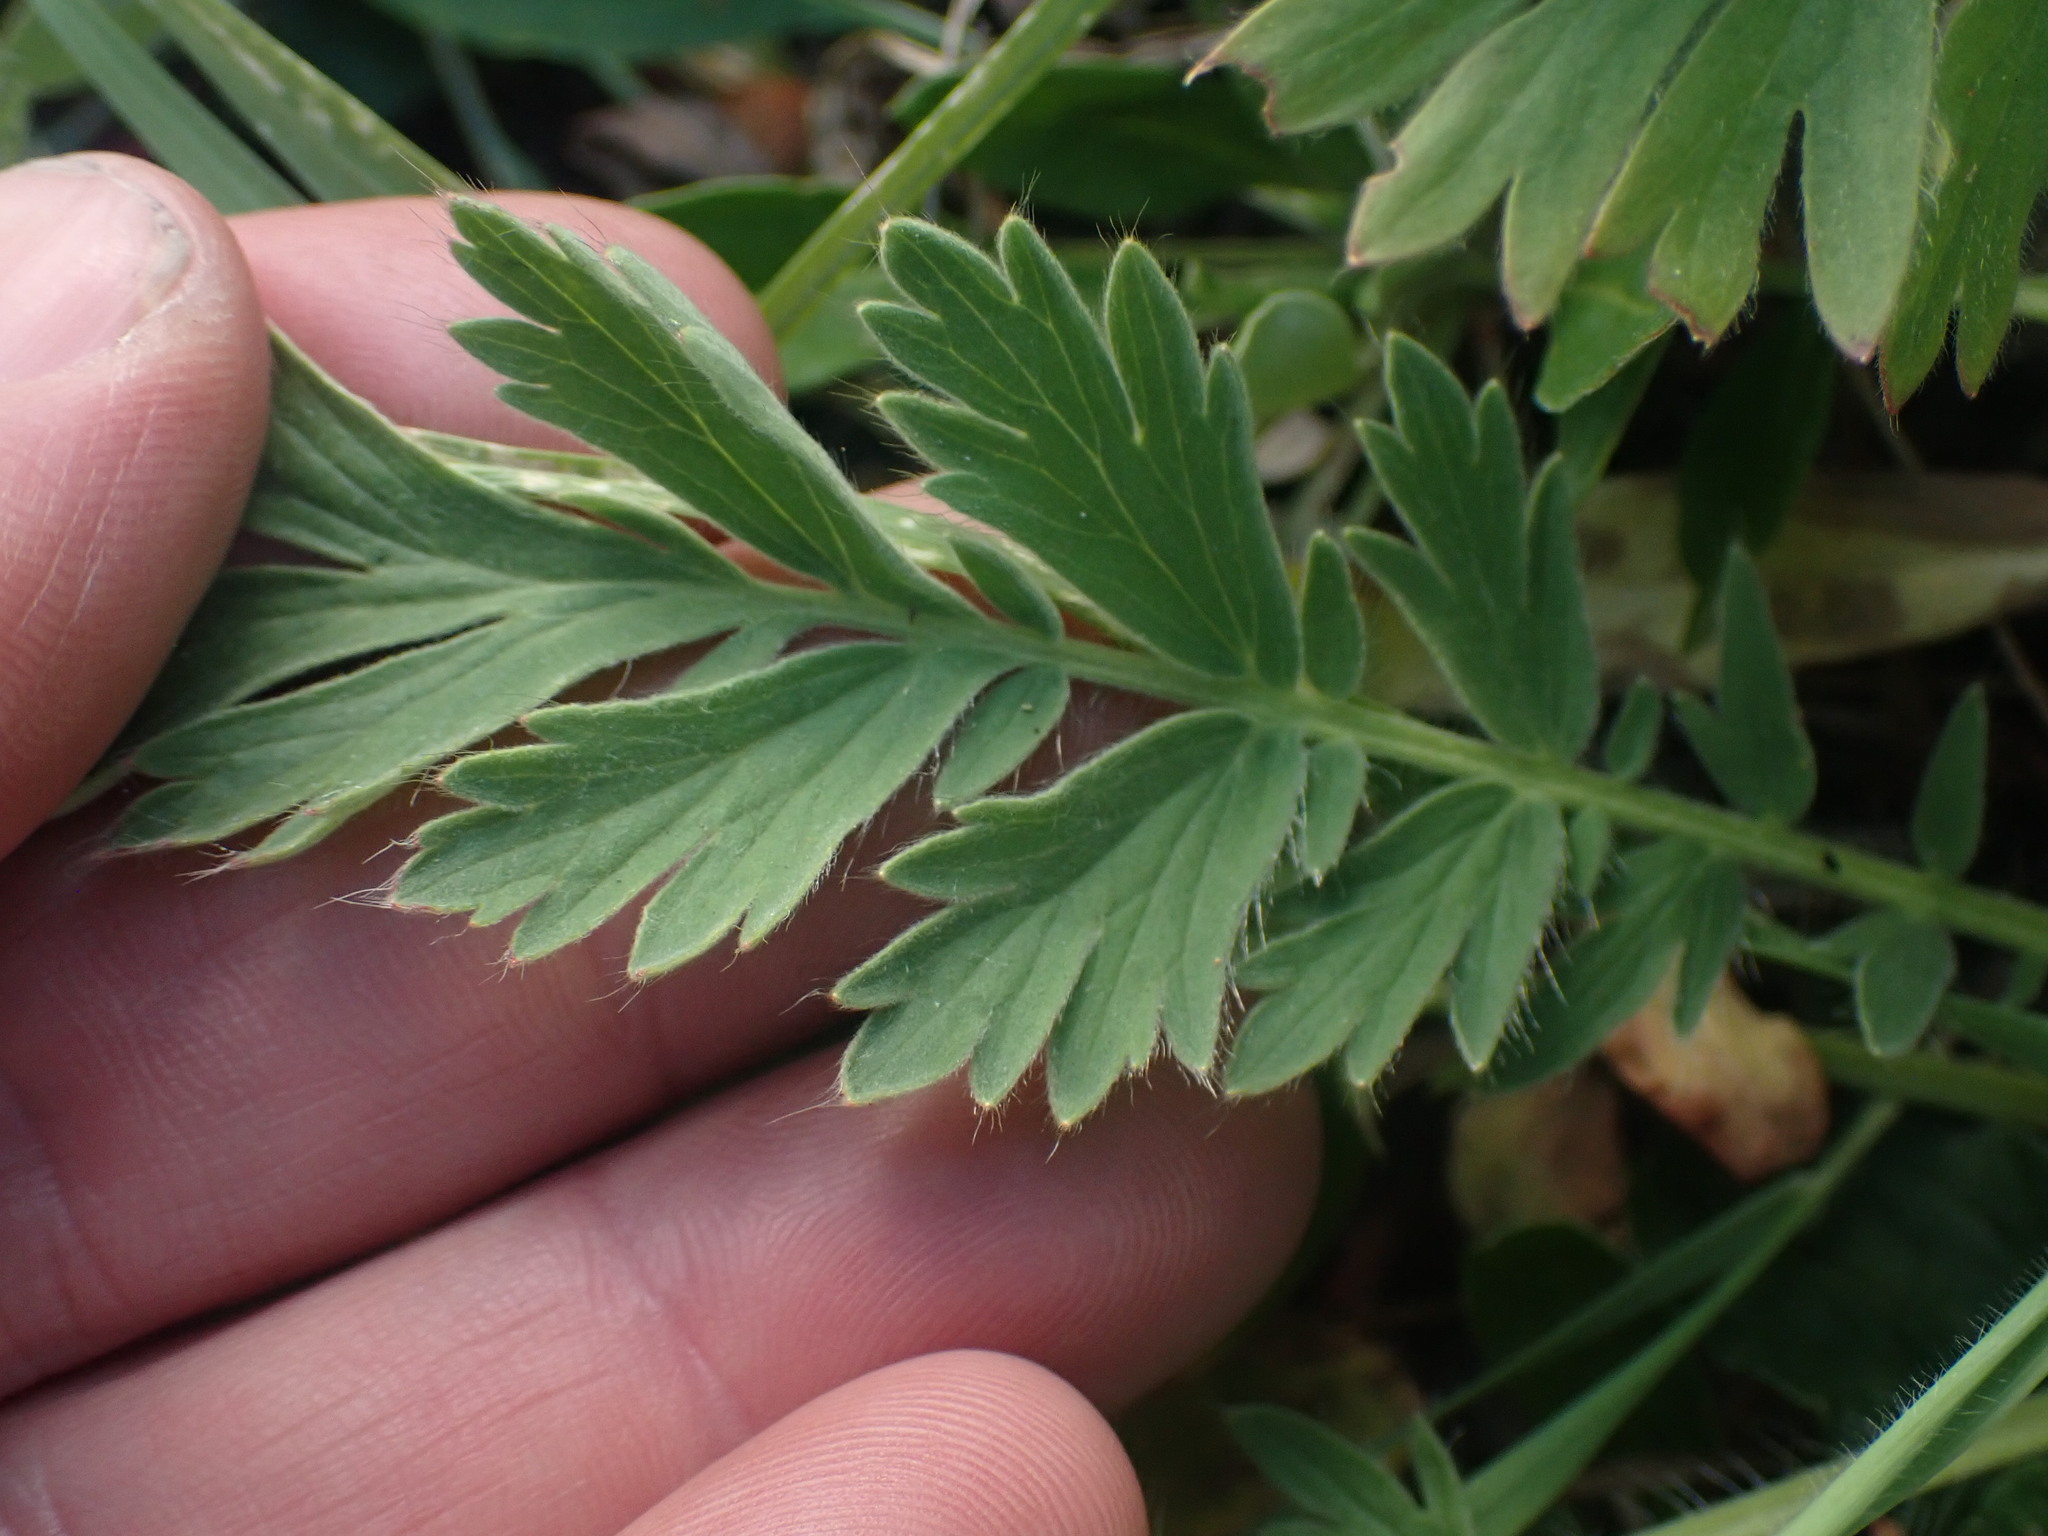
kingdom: Plantae
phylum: Tracheophyta
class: Magnoliopsida
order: Rosales
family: Rosaceae
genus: Geum
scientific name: Geum triflorum
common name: Old man's whiskers
